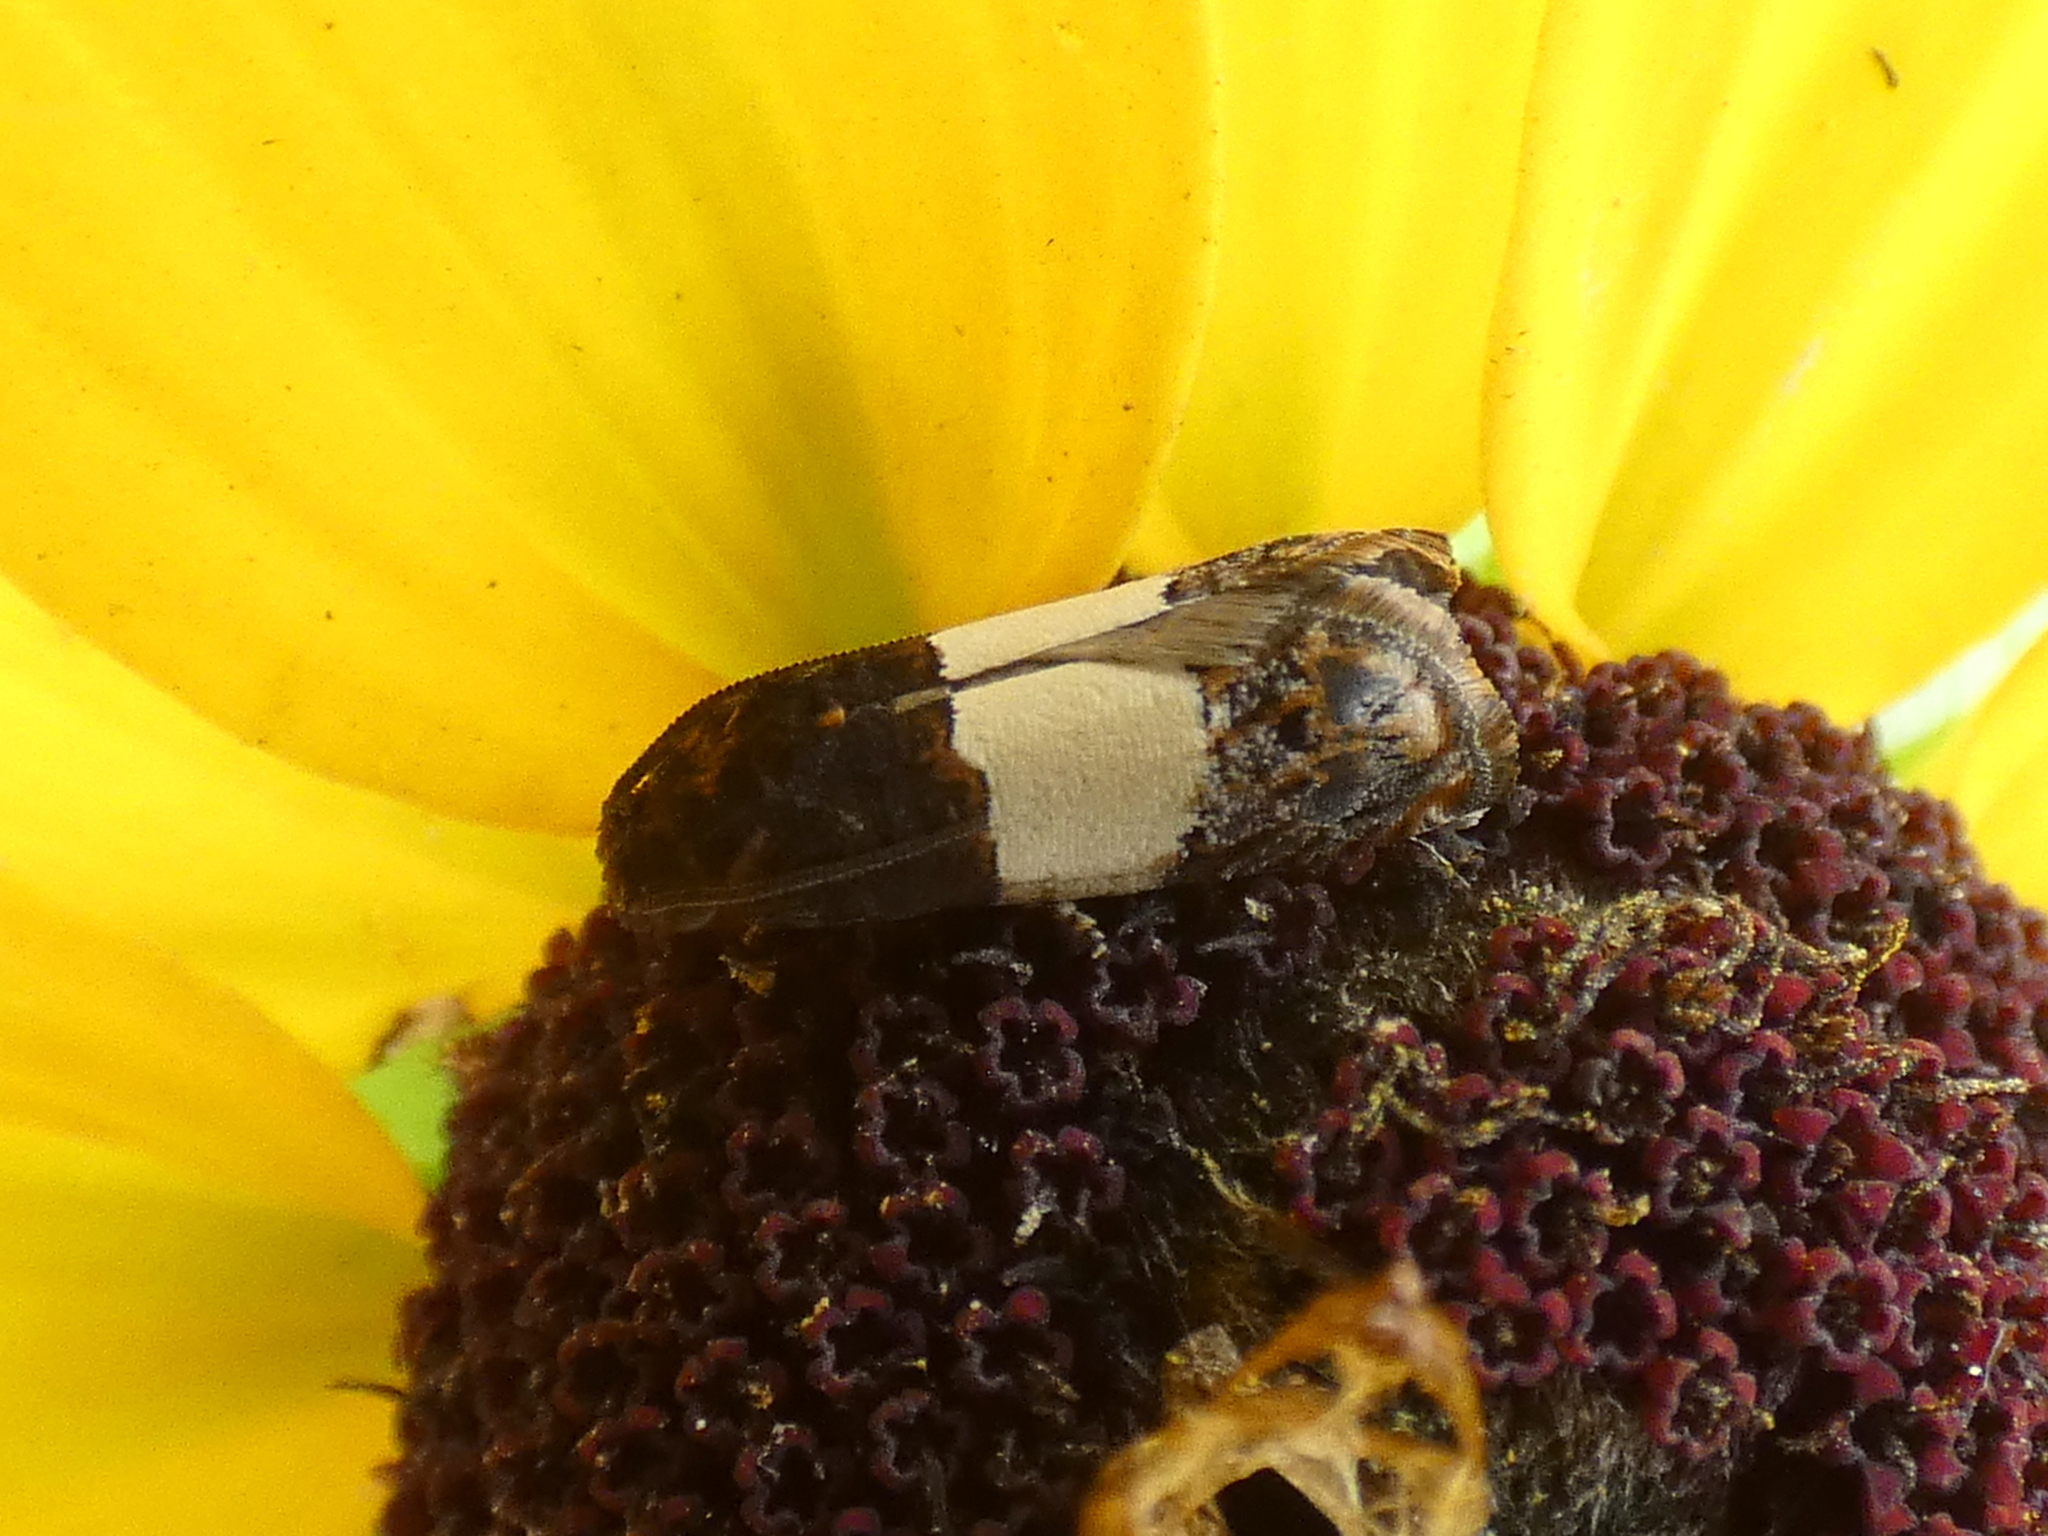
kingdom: Animalia
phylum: Arthropoda
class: Insecta
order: Lepidoptera
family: Tortricidae
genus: Epiblema
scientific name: Epiblema tripartitana
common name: Three-parted epiblema moth
